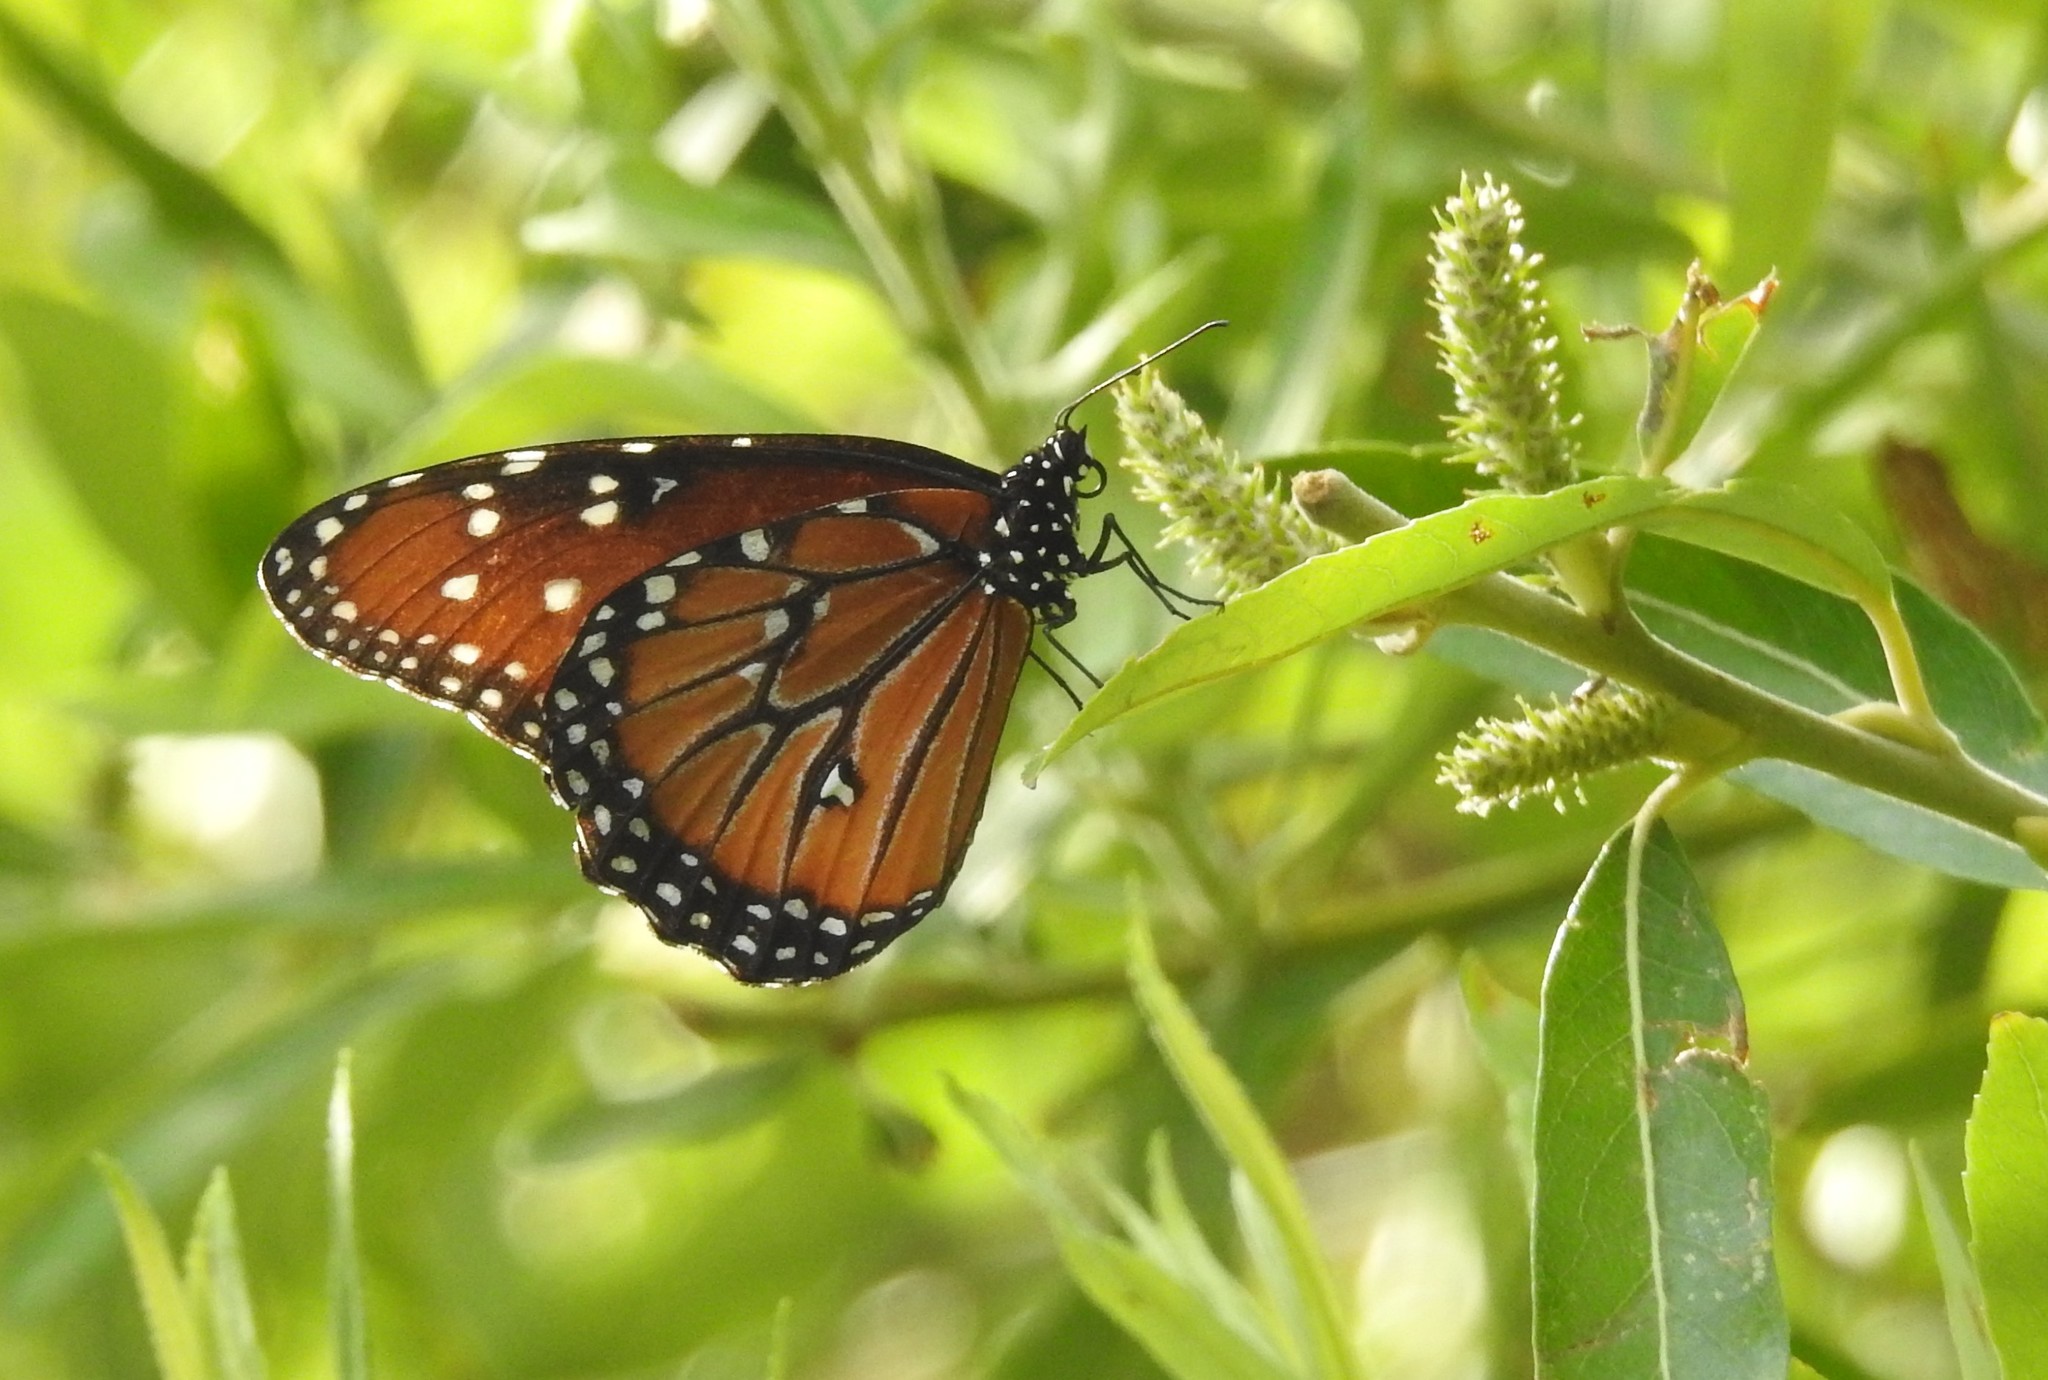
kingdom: Animalia
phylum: Arthropoda
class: Insecta
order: Lepidoptera
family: Nymphalidae
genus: Danaus
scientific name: Danaus gilippus
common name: Queen
